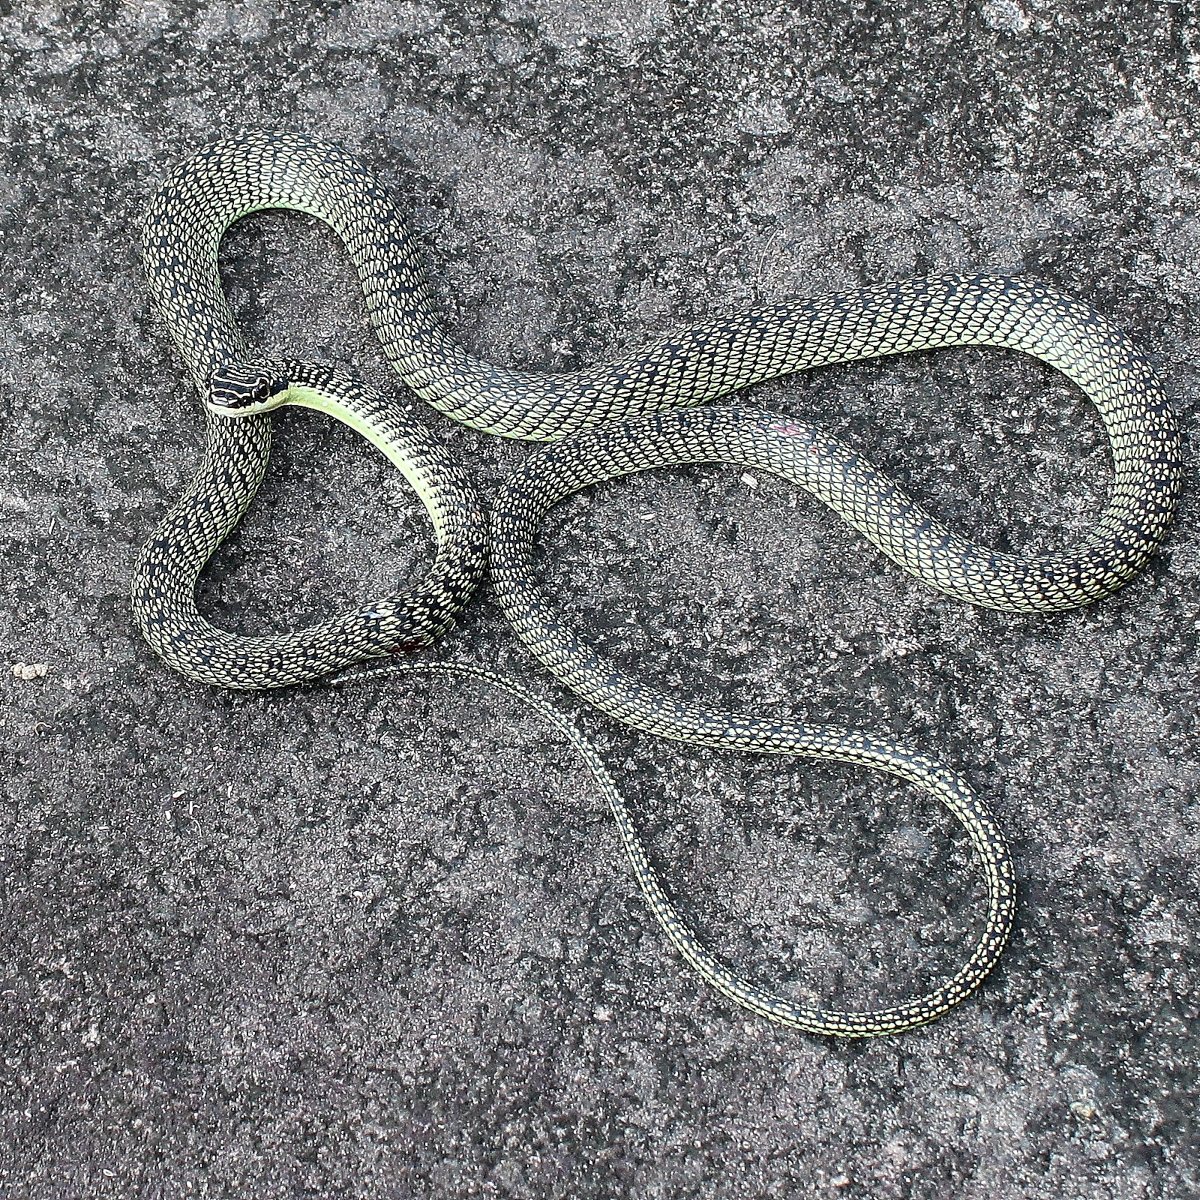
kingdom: Animalia
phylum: Chordata
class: Squamata
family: Colubridae
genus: Chrysopelea
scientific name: Chrysopelea ornata
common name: Golden flying snake
